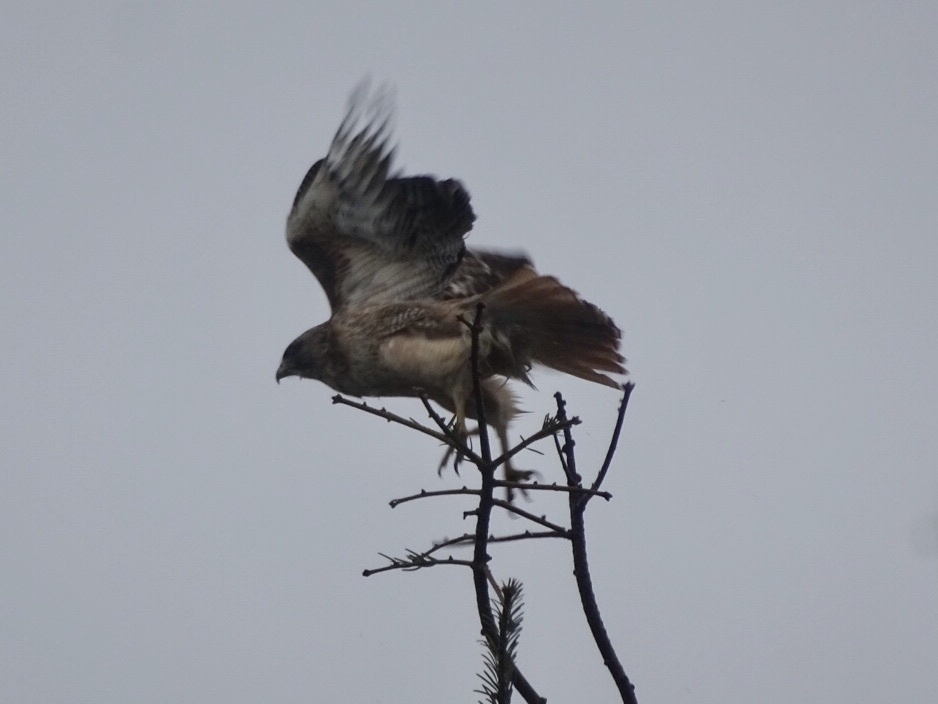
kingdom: Animalia
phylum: Chordata
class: Aves
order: Accipitriformes
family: Accipitridae
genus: Buteo
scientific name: Buteo jamaicensis
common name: Red-tailed hawk
